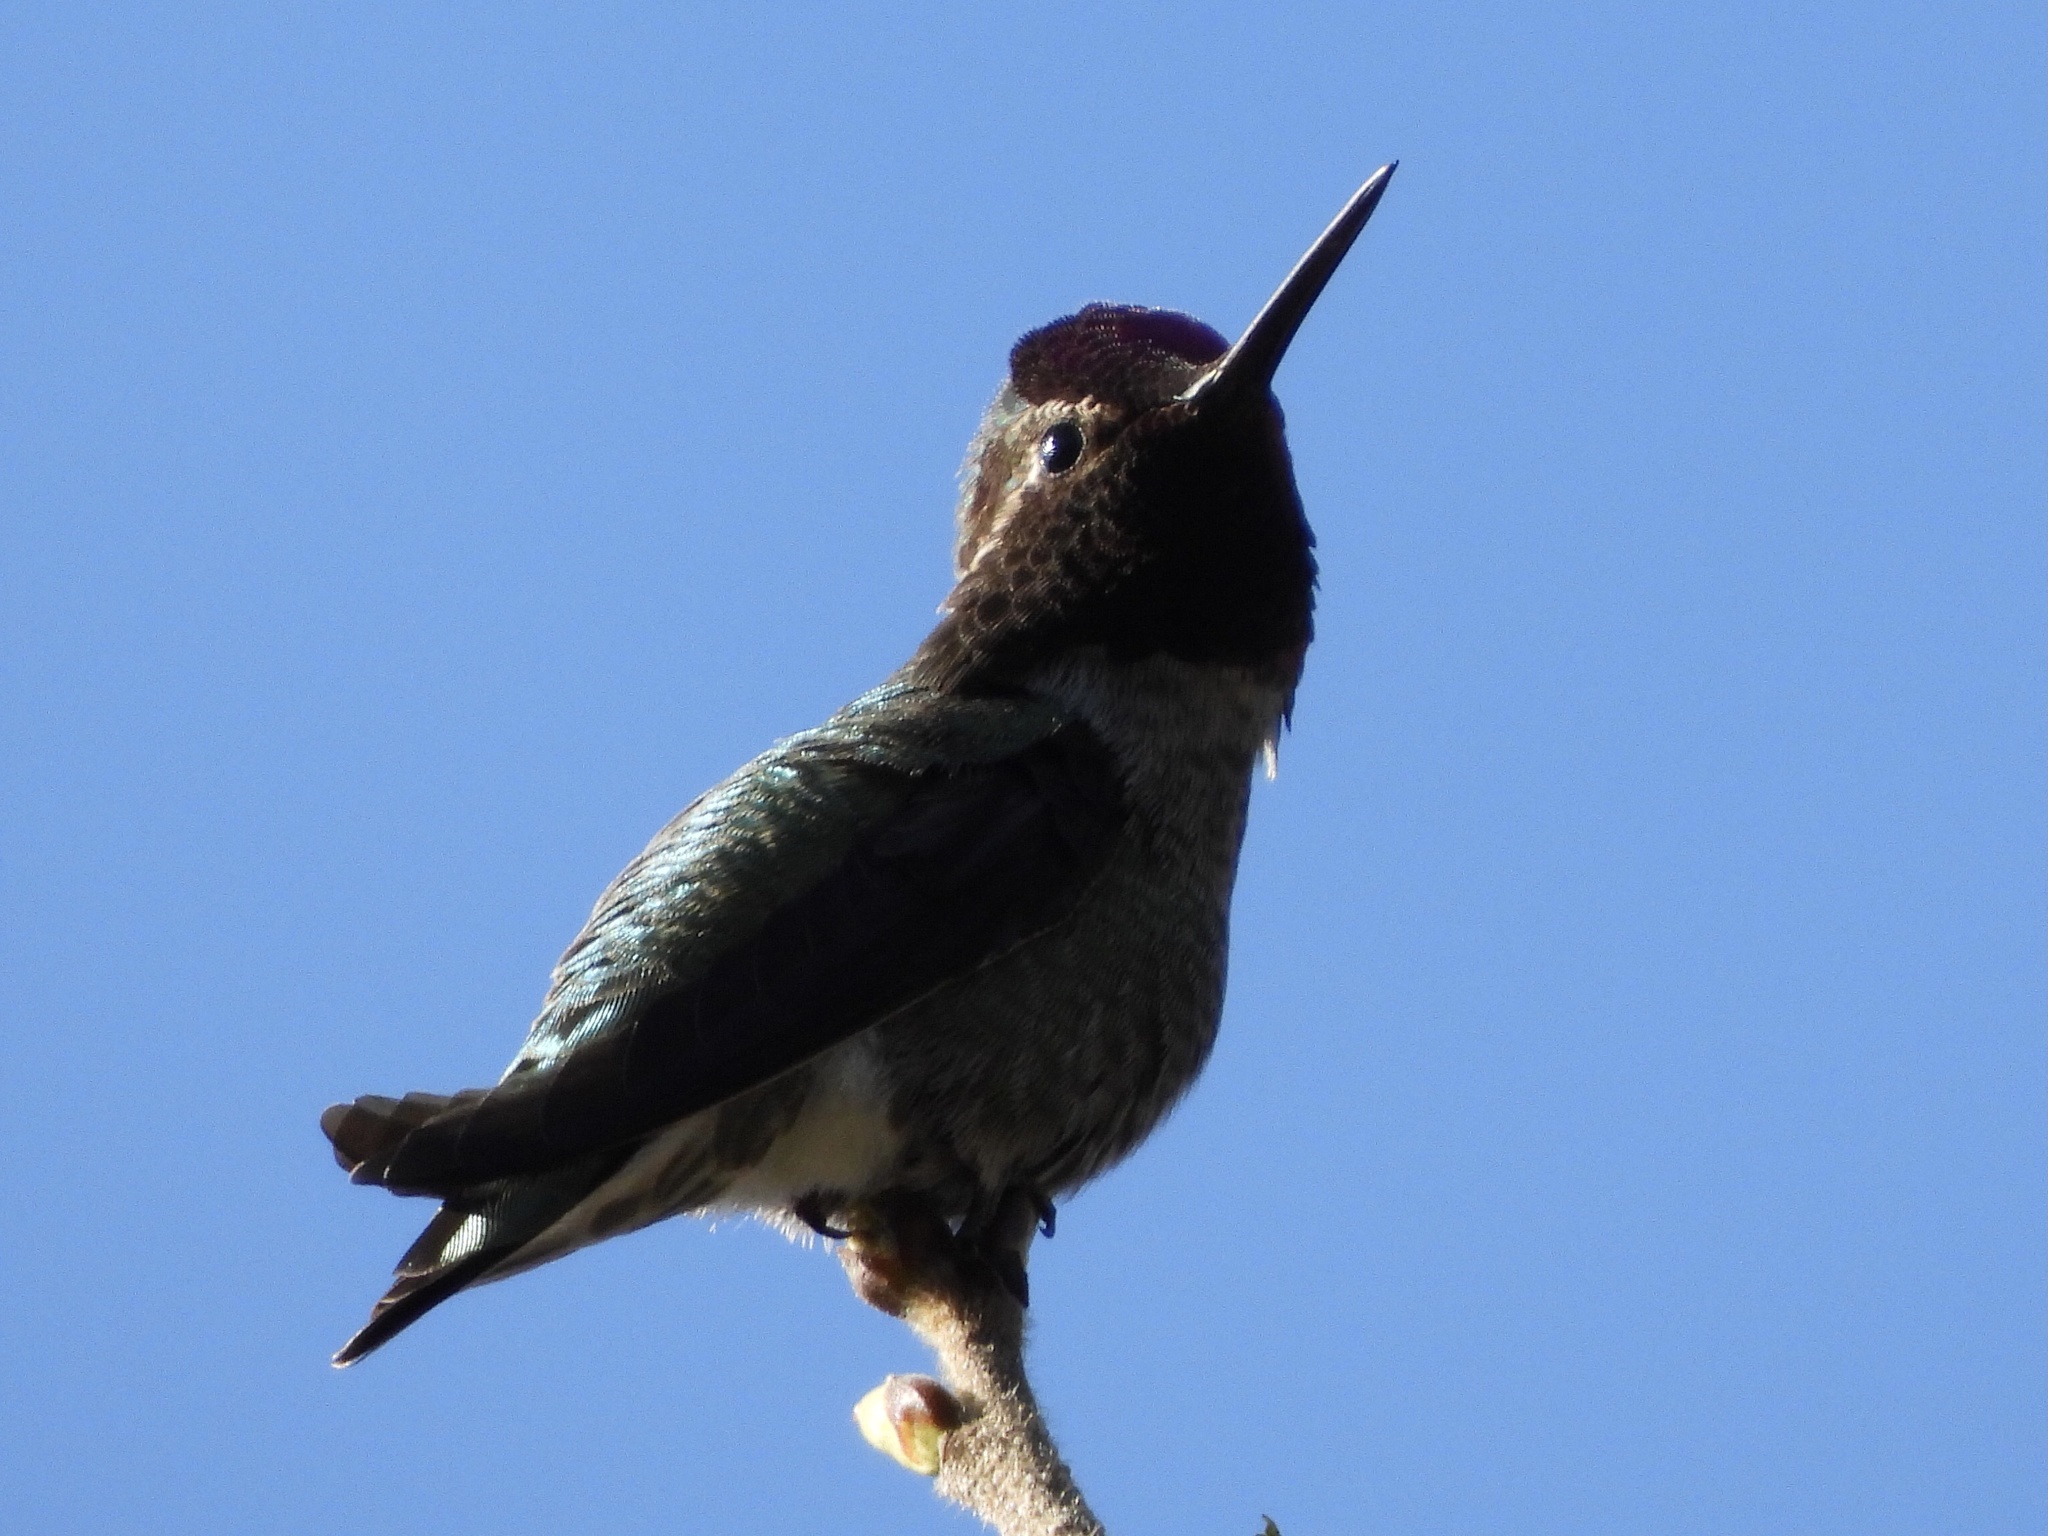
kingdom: Animalia
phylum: Chordata
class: Aves
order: Apodiformes
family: Trochilidae
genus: Calypte
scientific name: Calypte anna
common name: Anna's hummingbird
